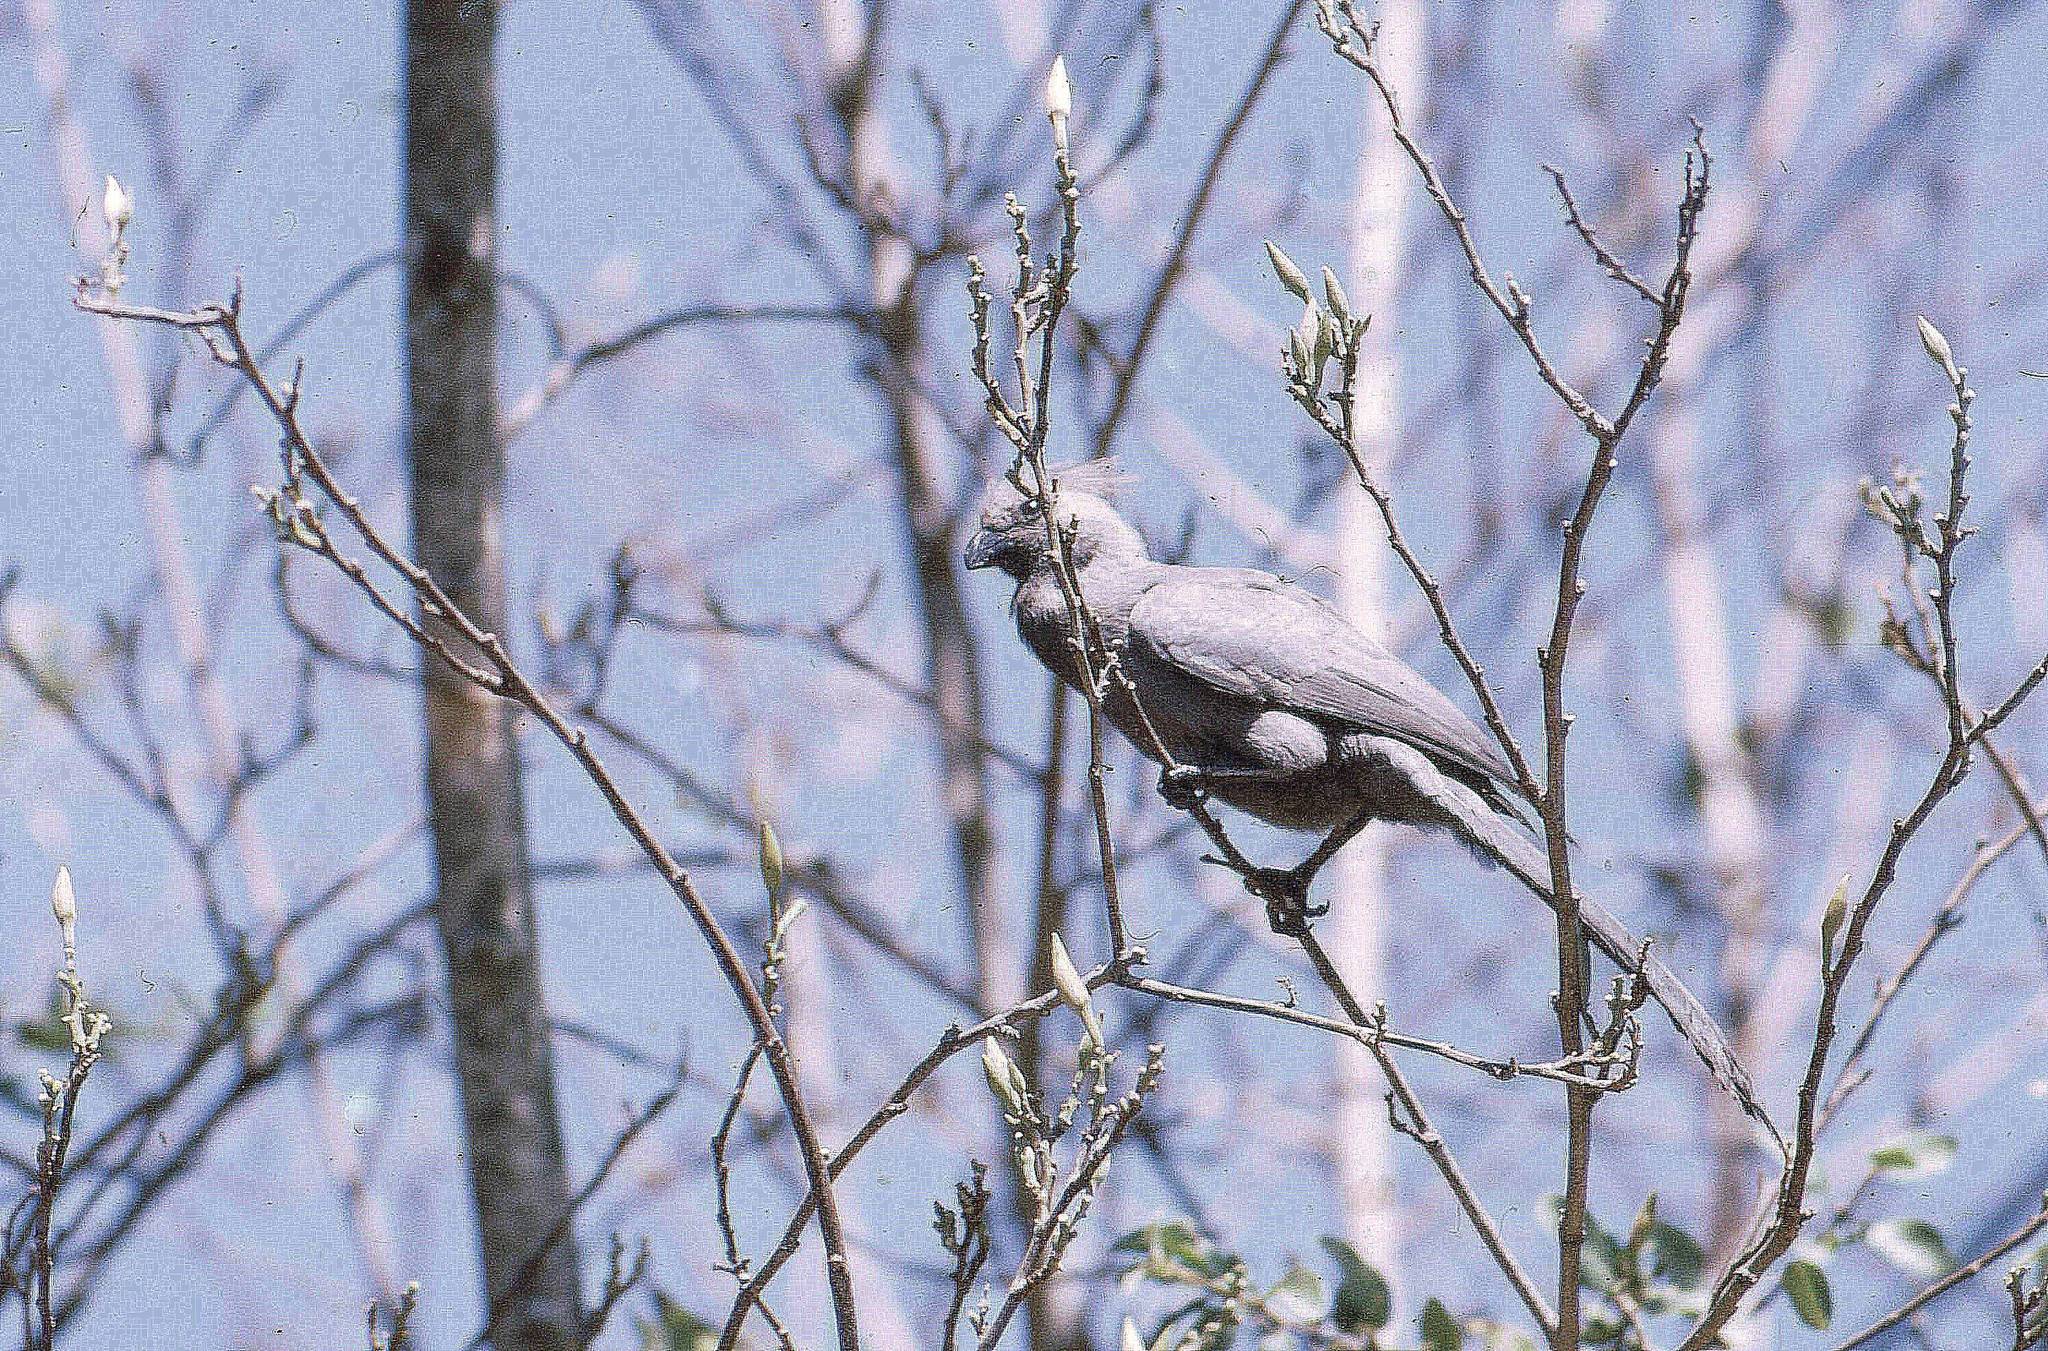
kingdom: Animalia
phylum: Chordata
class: Aves
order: Musophagiformes
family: Musophagidae
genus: Corythaixoides
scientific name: Corythaixoides concolor
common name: Grey go-away-bird
